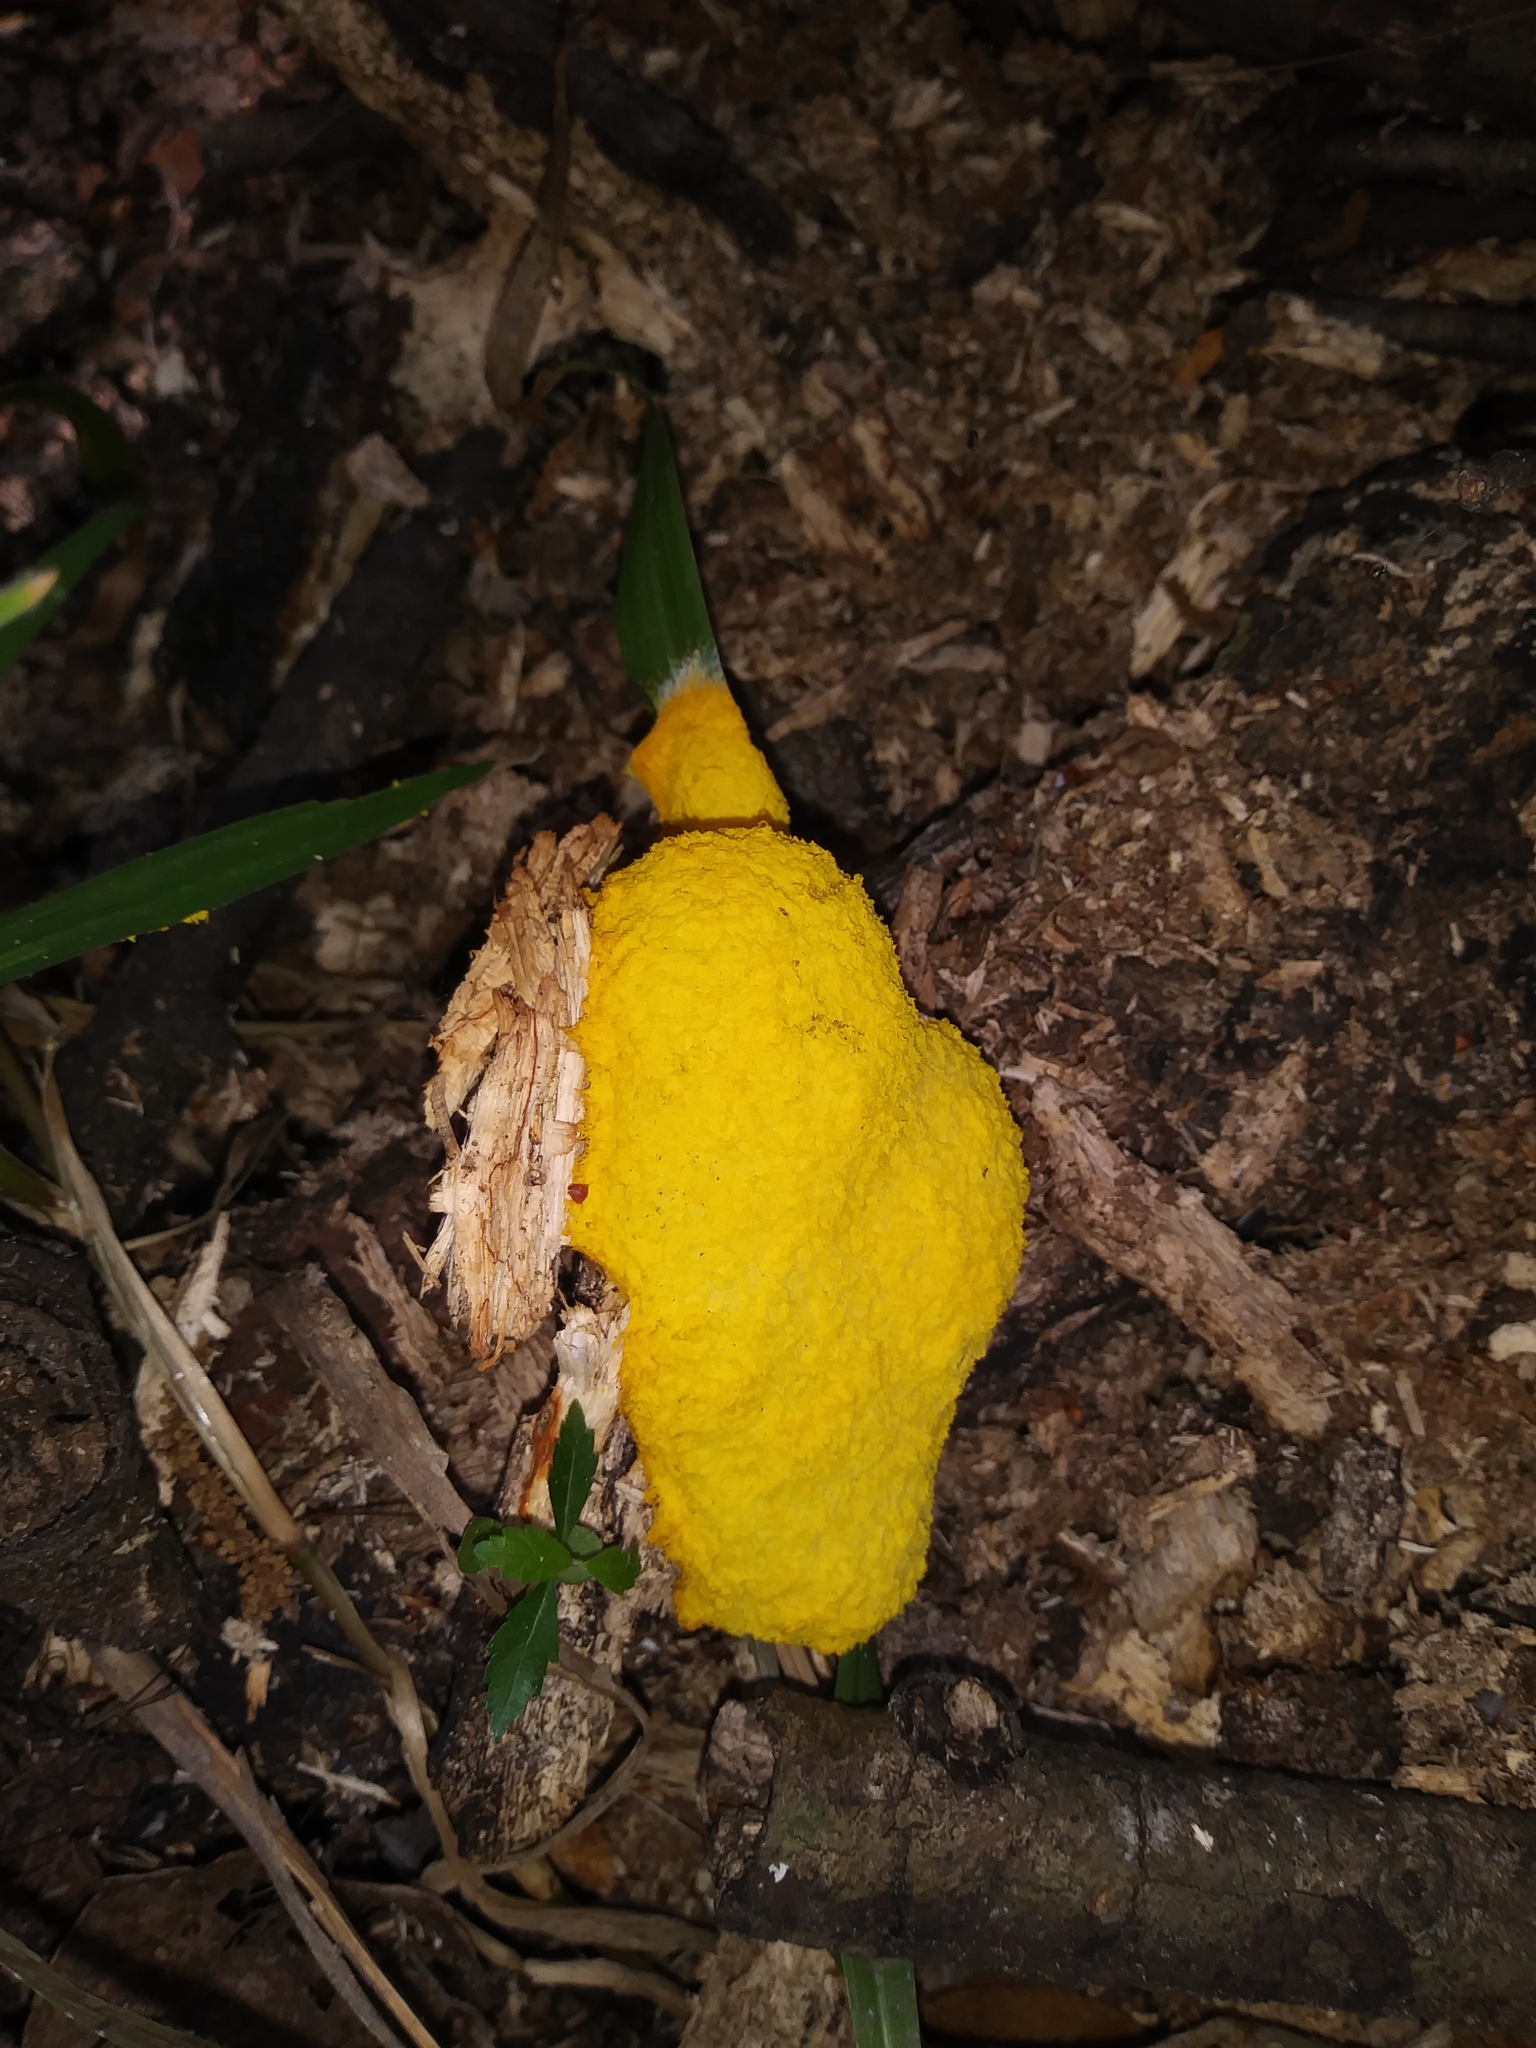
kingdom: Protozoa
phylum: Mycetozoa
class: Myxomycetes
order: Physarales
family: Physaraceae
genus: Fuligo
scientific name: Fuligo septica
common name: Dog vomit slime mold
